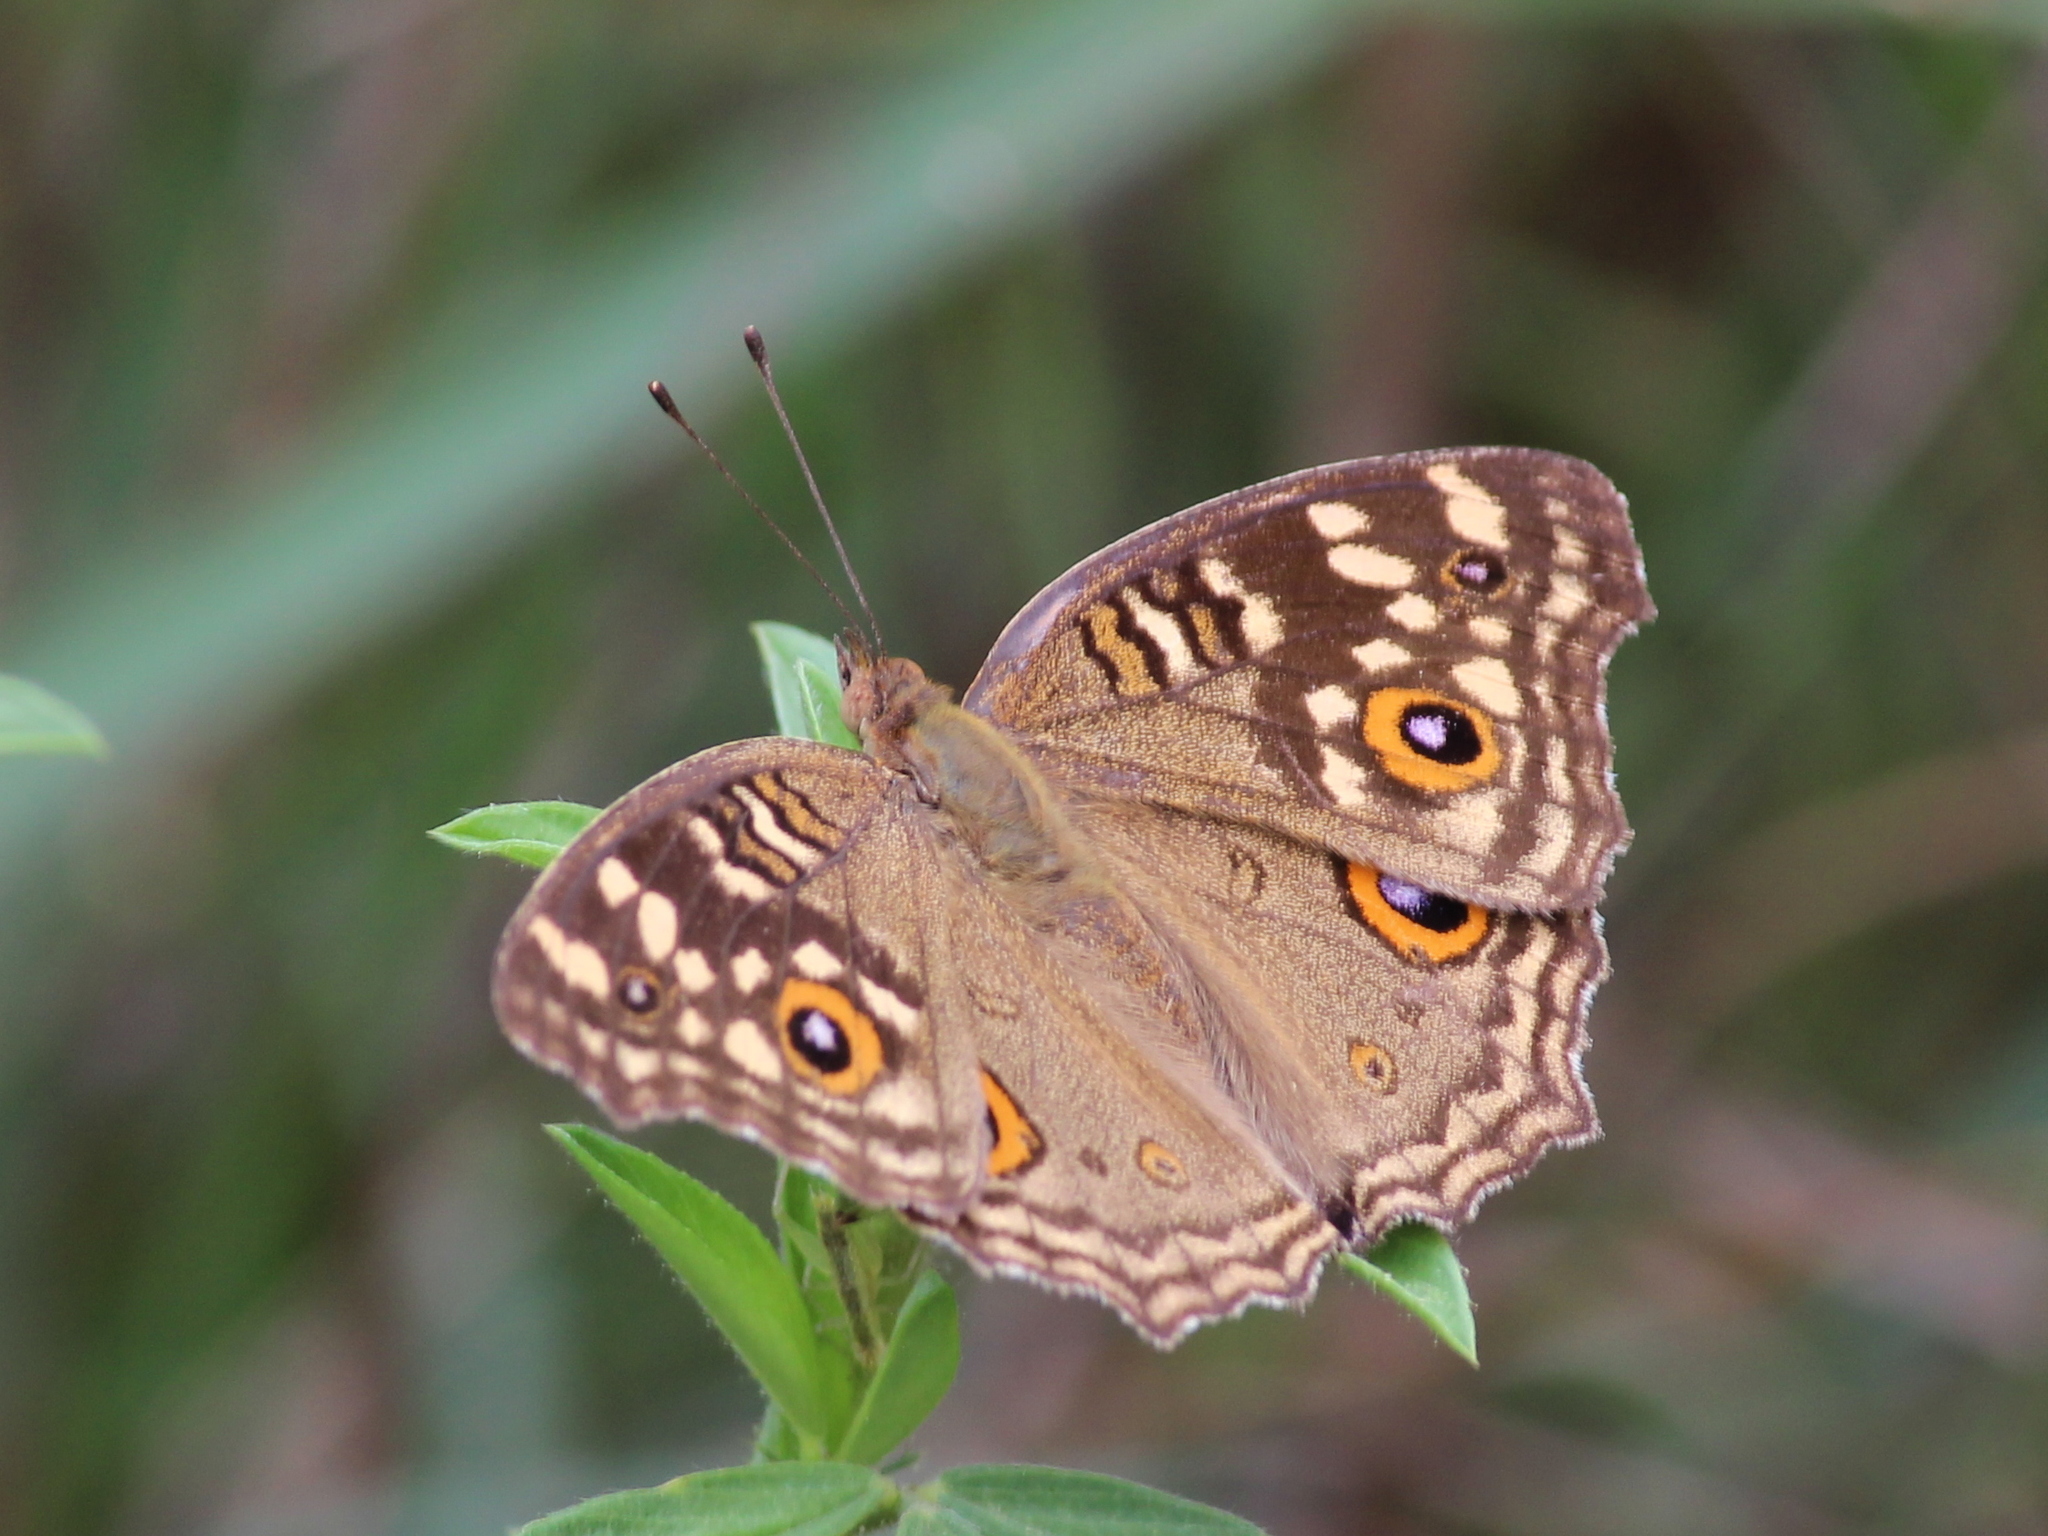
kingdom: Animalia
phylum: Arthropoda
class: Insecta
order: Lepidoptera
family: Nymphalidae
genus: Junonia
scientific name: Junonia lemonias
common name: Lemon pansy
